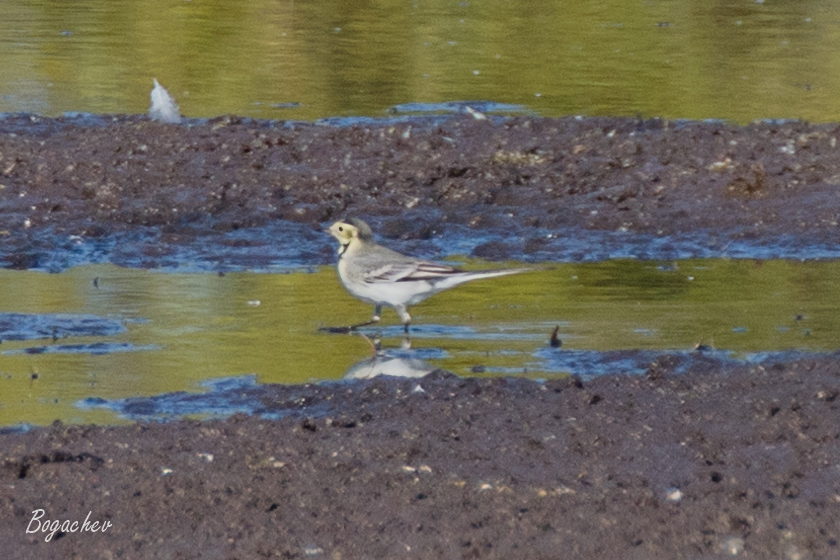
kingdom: Animalia
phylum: Chordata
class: Aves
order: Passeriformes
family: Motacillidae
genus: Motacilla
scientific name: Motacilla alba
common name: White wagtail
